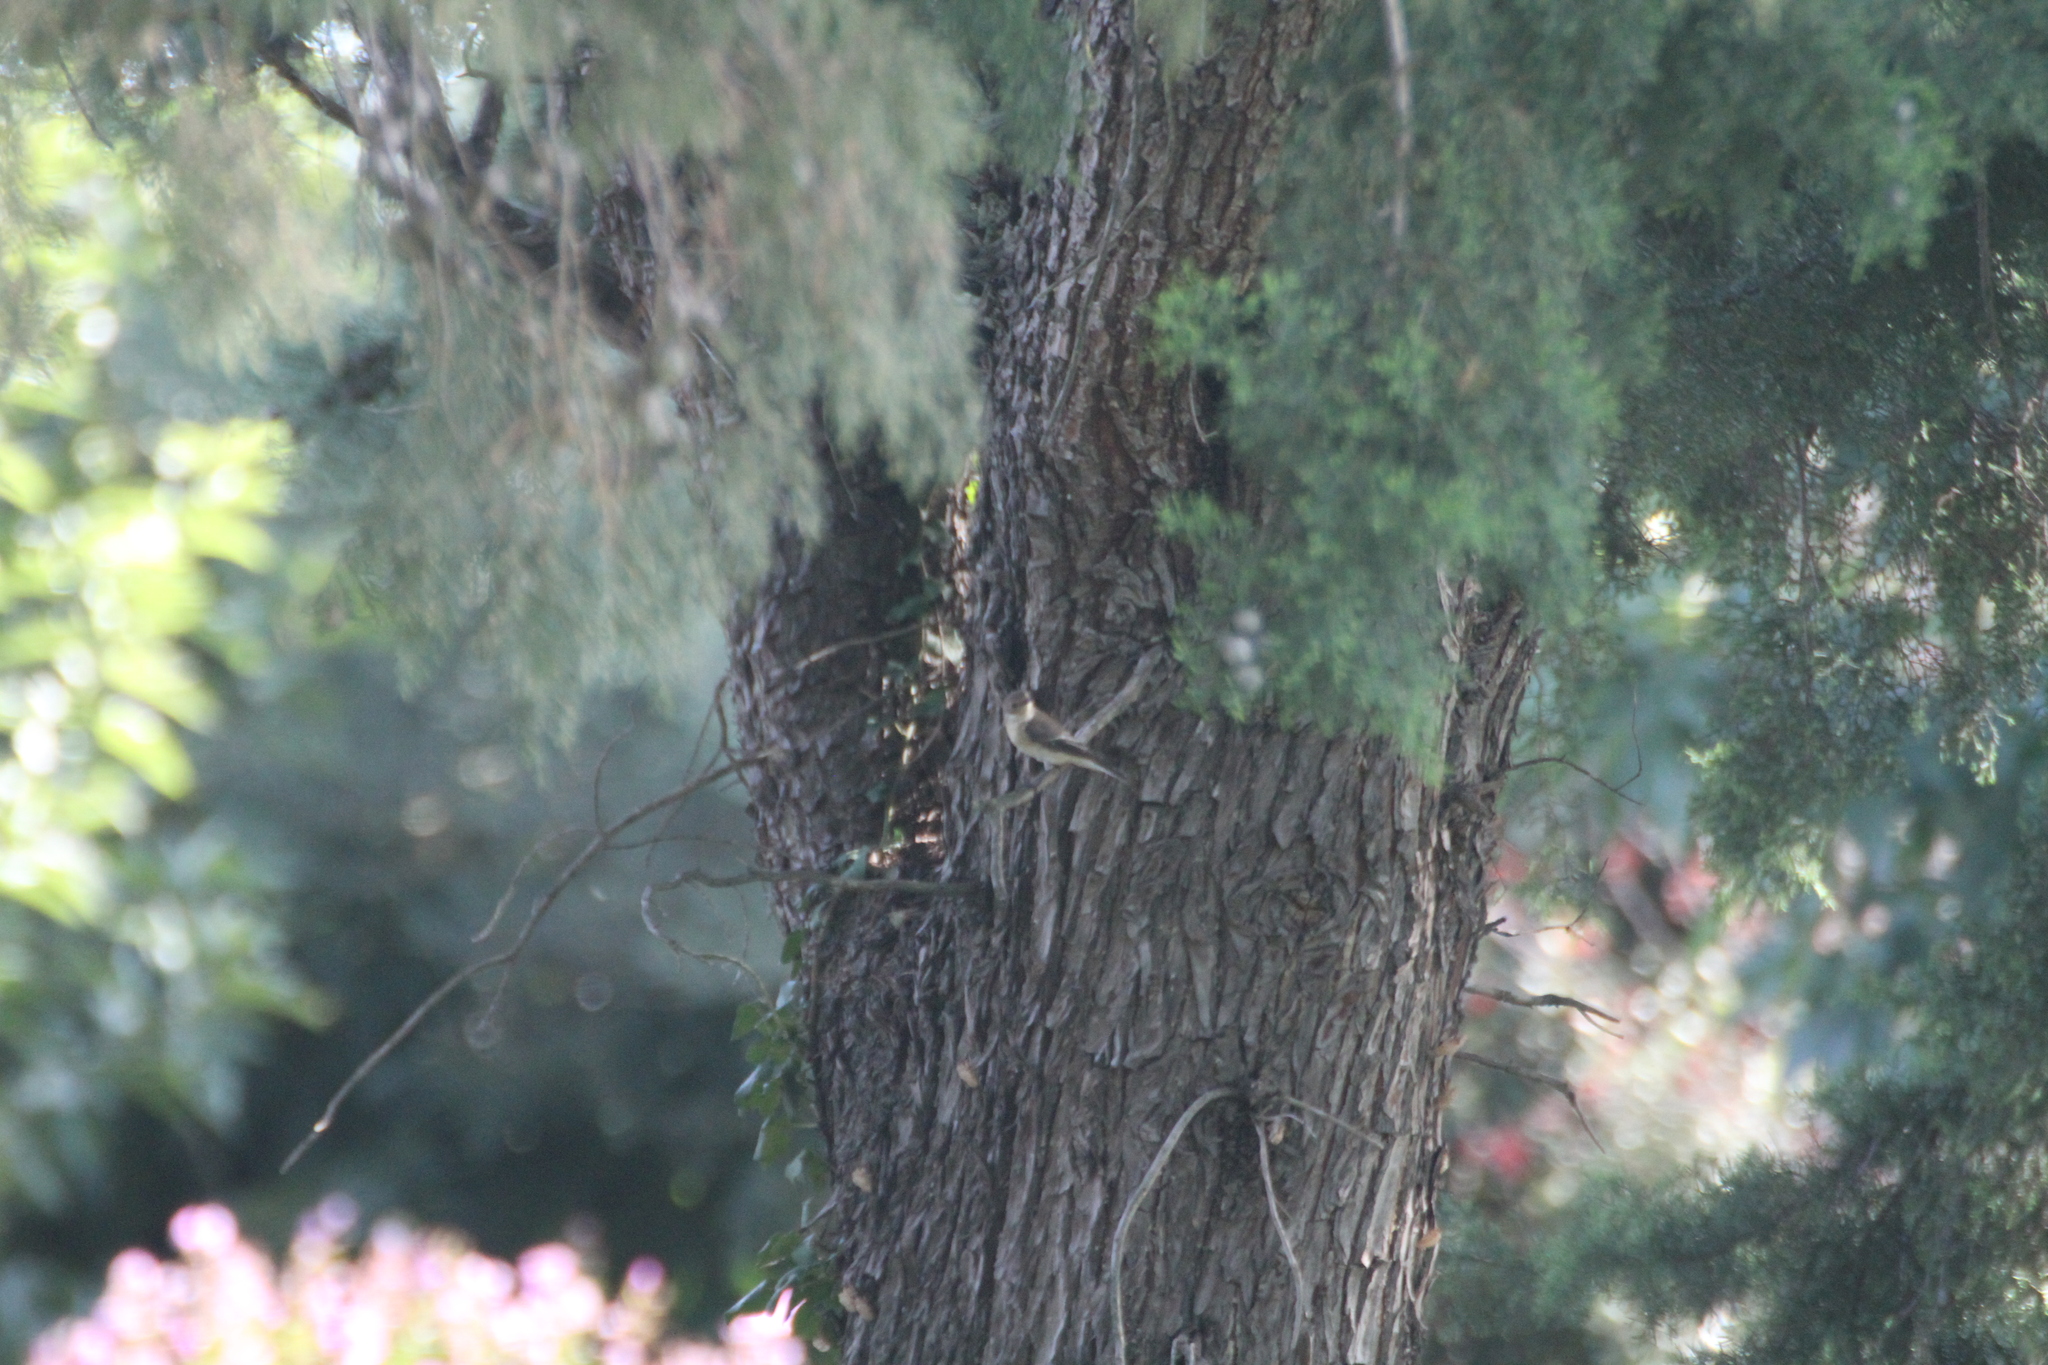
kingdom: Animalia
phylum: Chordata
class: Aves
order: Passeriformes
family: Muscicapidae
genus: Muscicapa
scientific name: Muscicapa striata
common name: Spotted flycatcher
